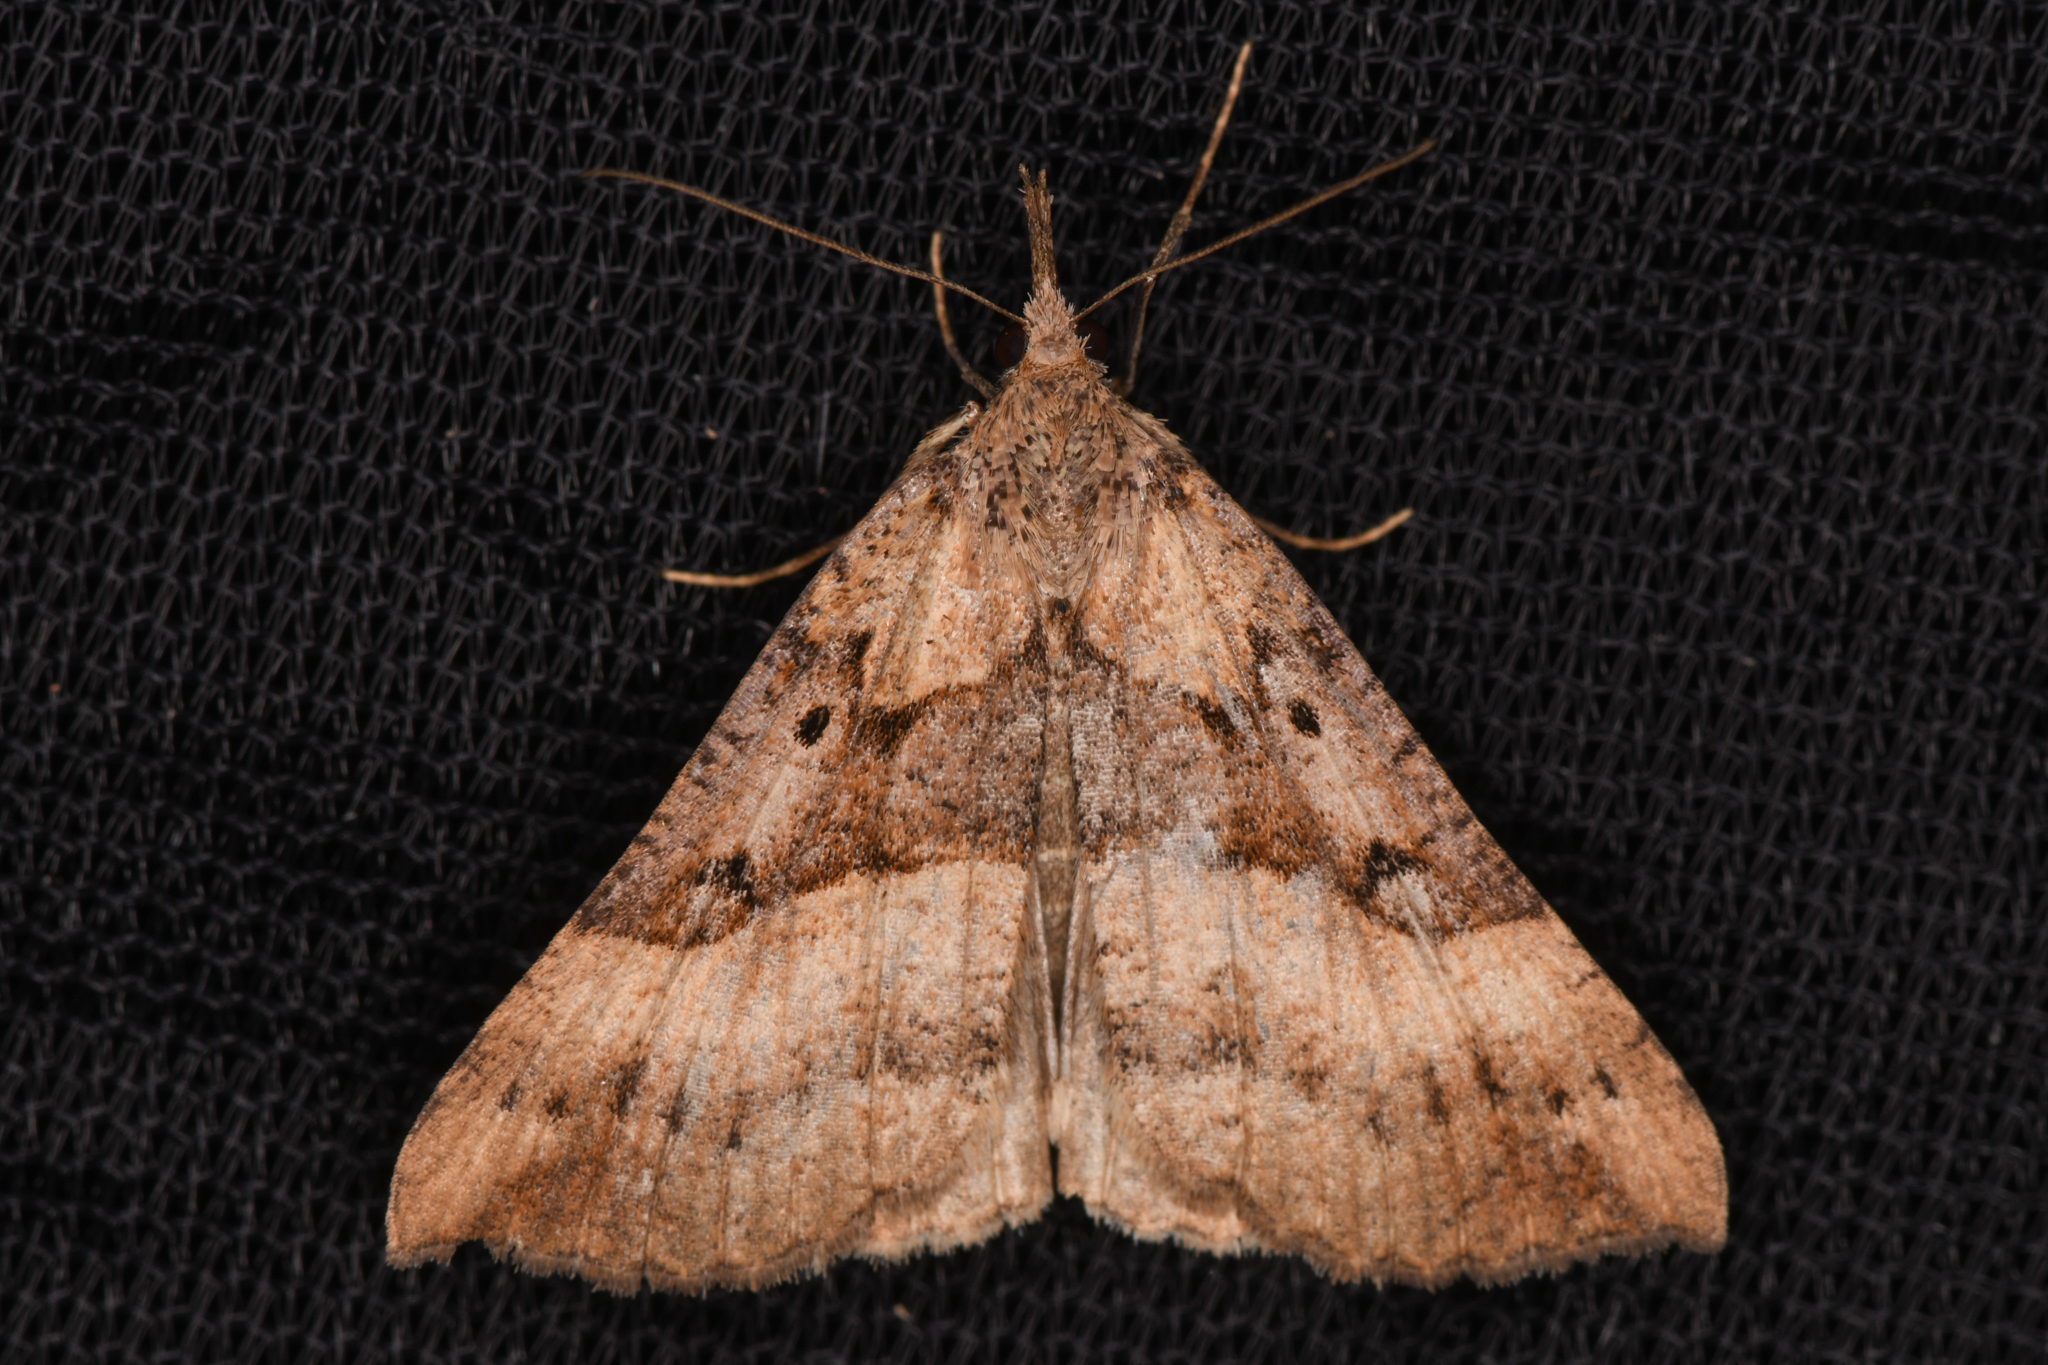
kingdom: Animalia
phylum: Arthropoda
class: Insecta
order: Lepidoptera
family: Erebidae
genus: Hypena
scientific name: Hypena edictalis
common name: Large snout
